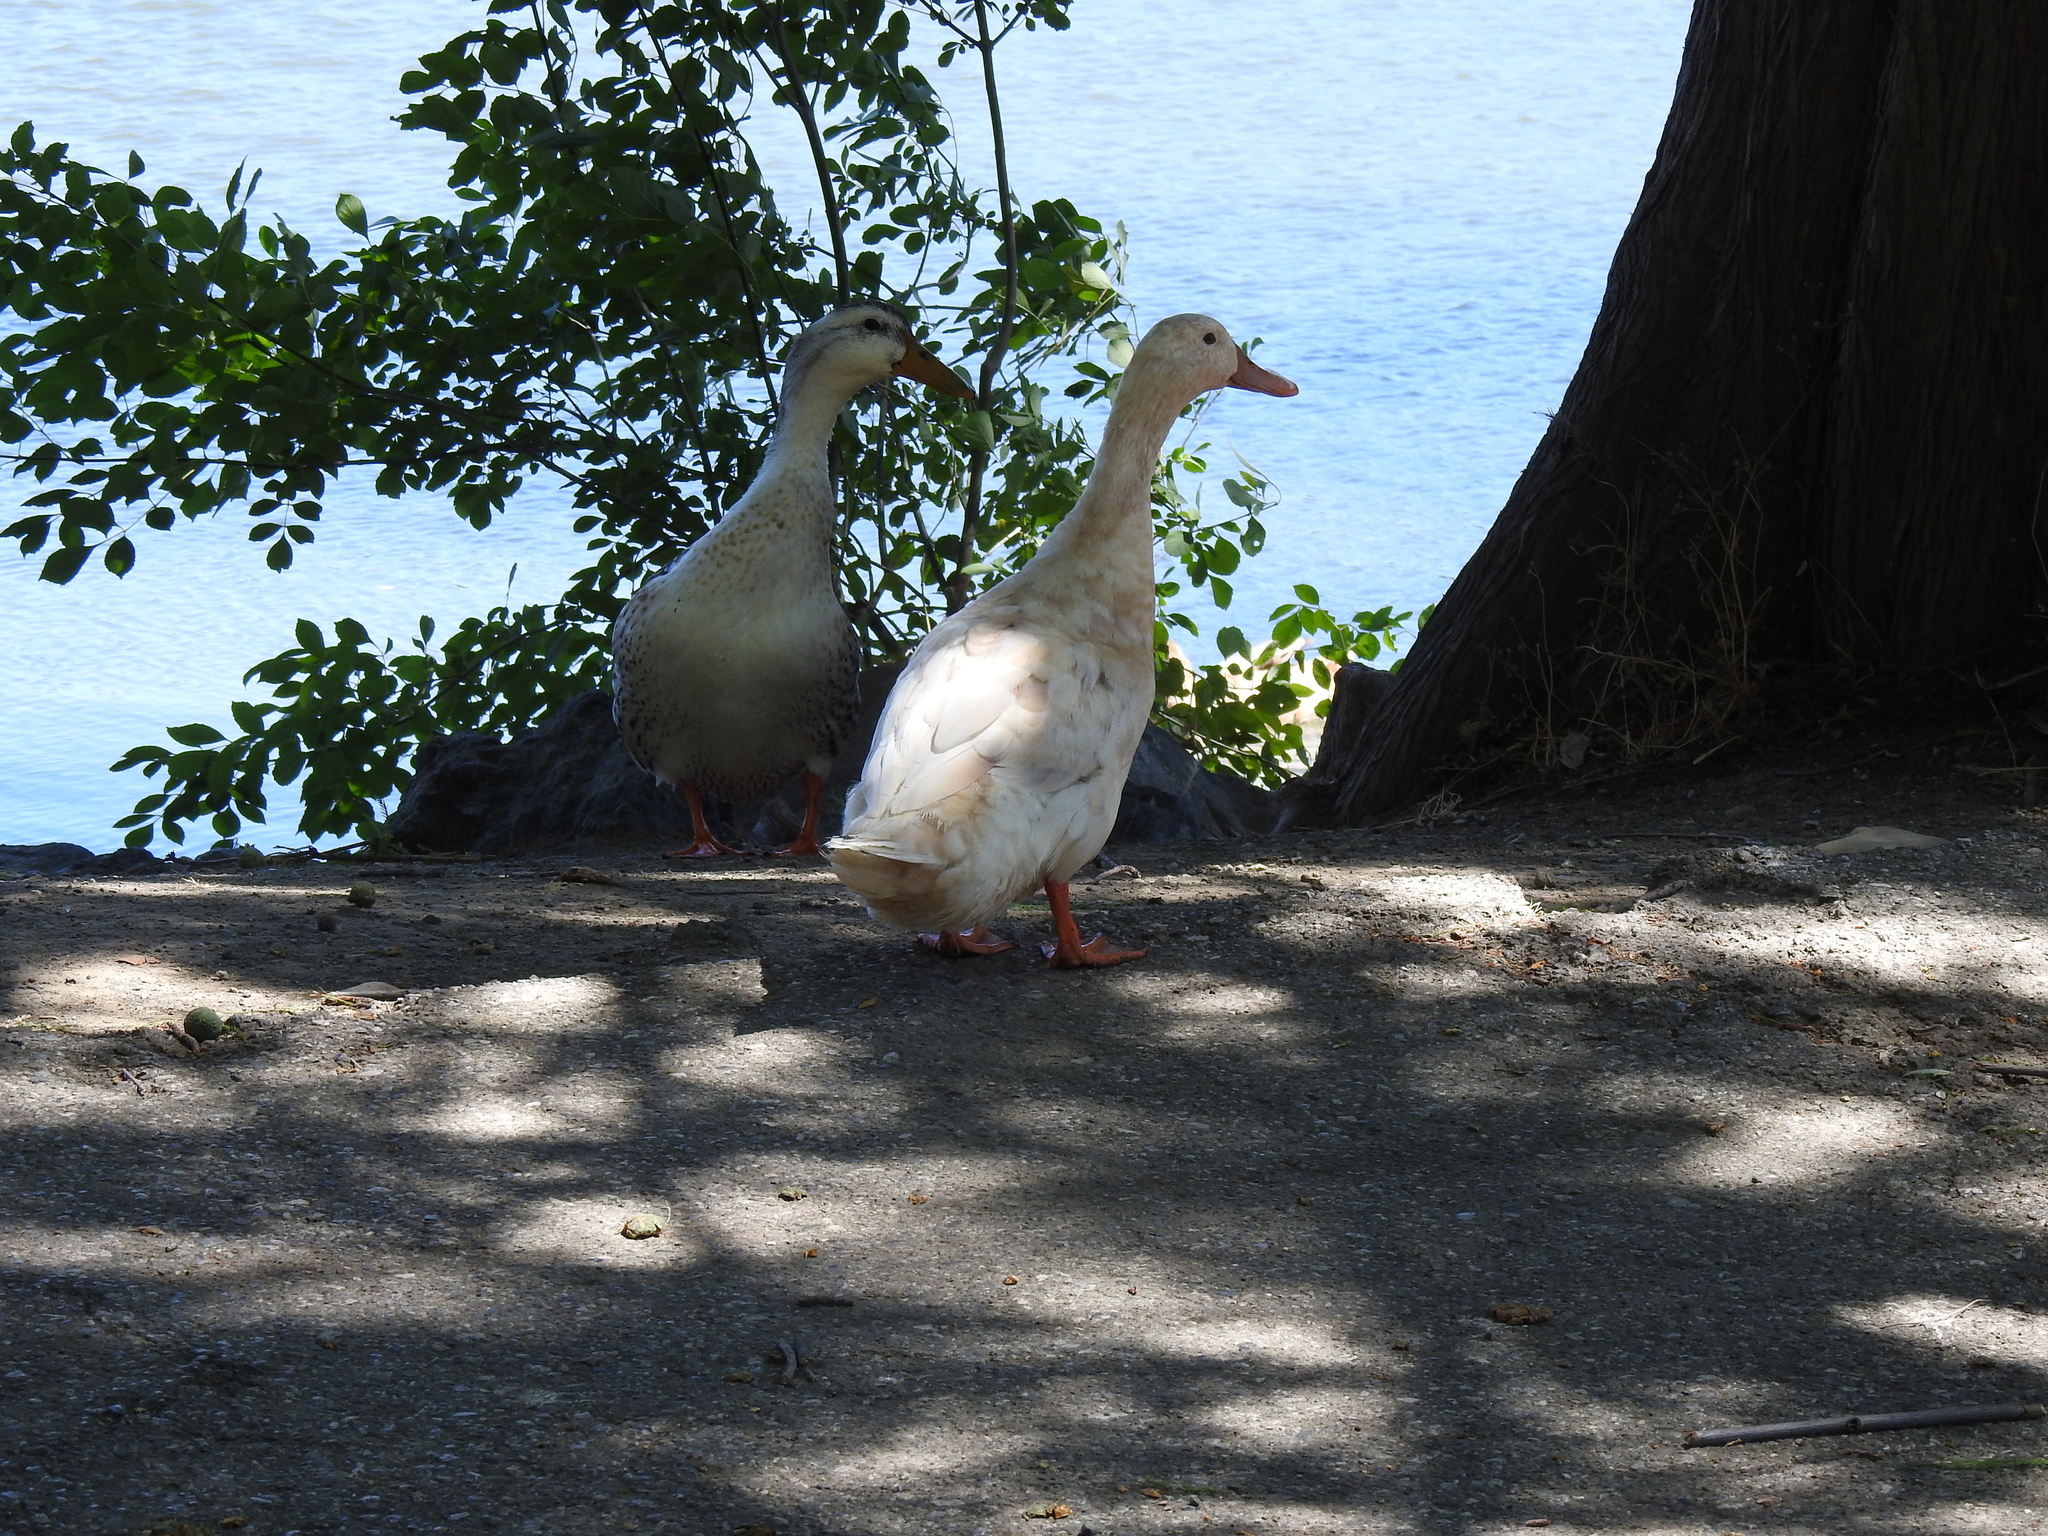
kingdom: Animalia
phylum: Chordata
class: Aves
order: Anseriformes
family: Anatidae
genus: Anas
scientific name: Anas platyrhynchos
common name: Mallard
